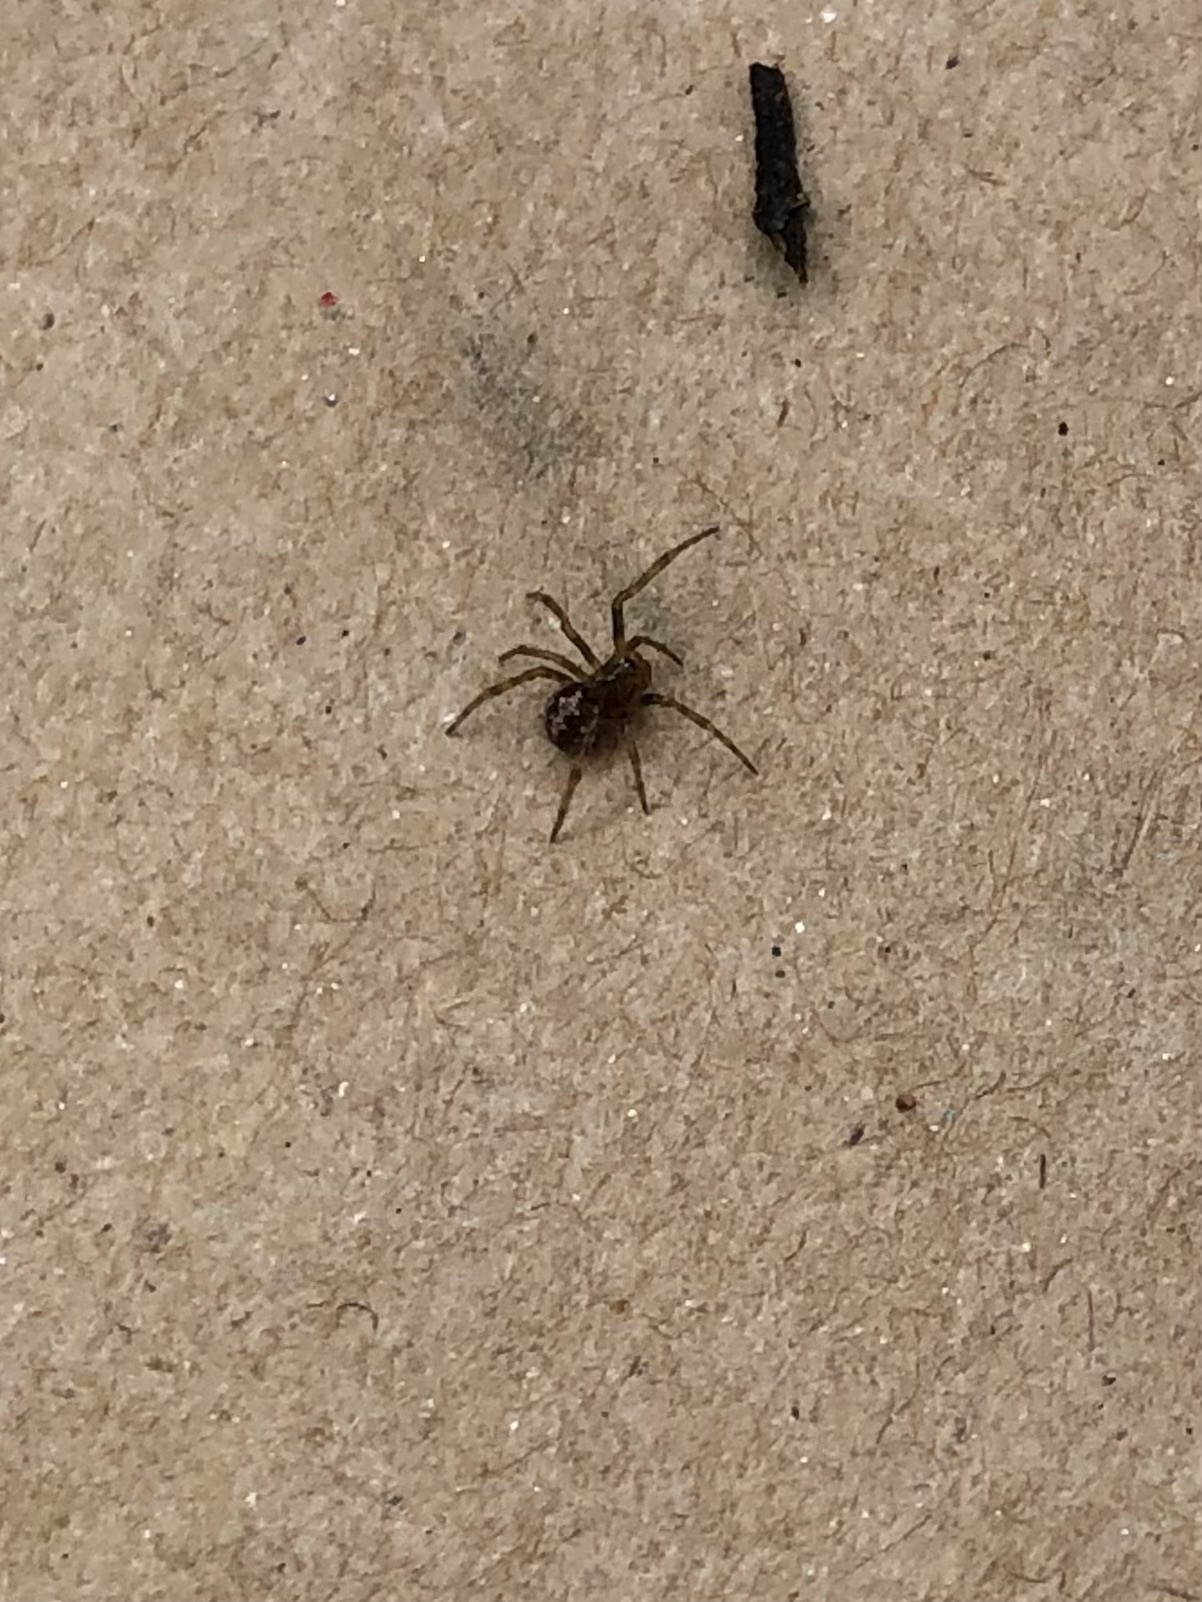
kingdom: Animalia
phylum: Arthropoda
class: Arachnida
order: Araneae
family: Theridiidae
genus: Steatoda
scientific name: Steatoda triangulosa
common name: Triangulate bud spider
